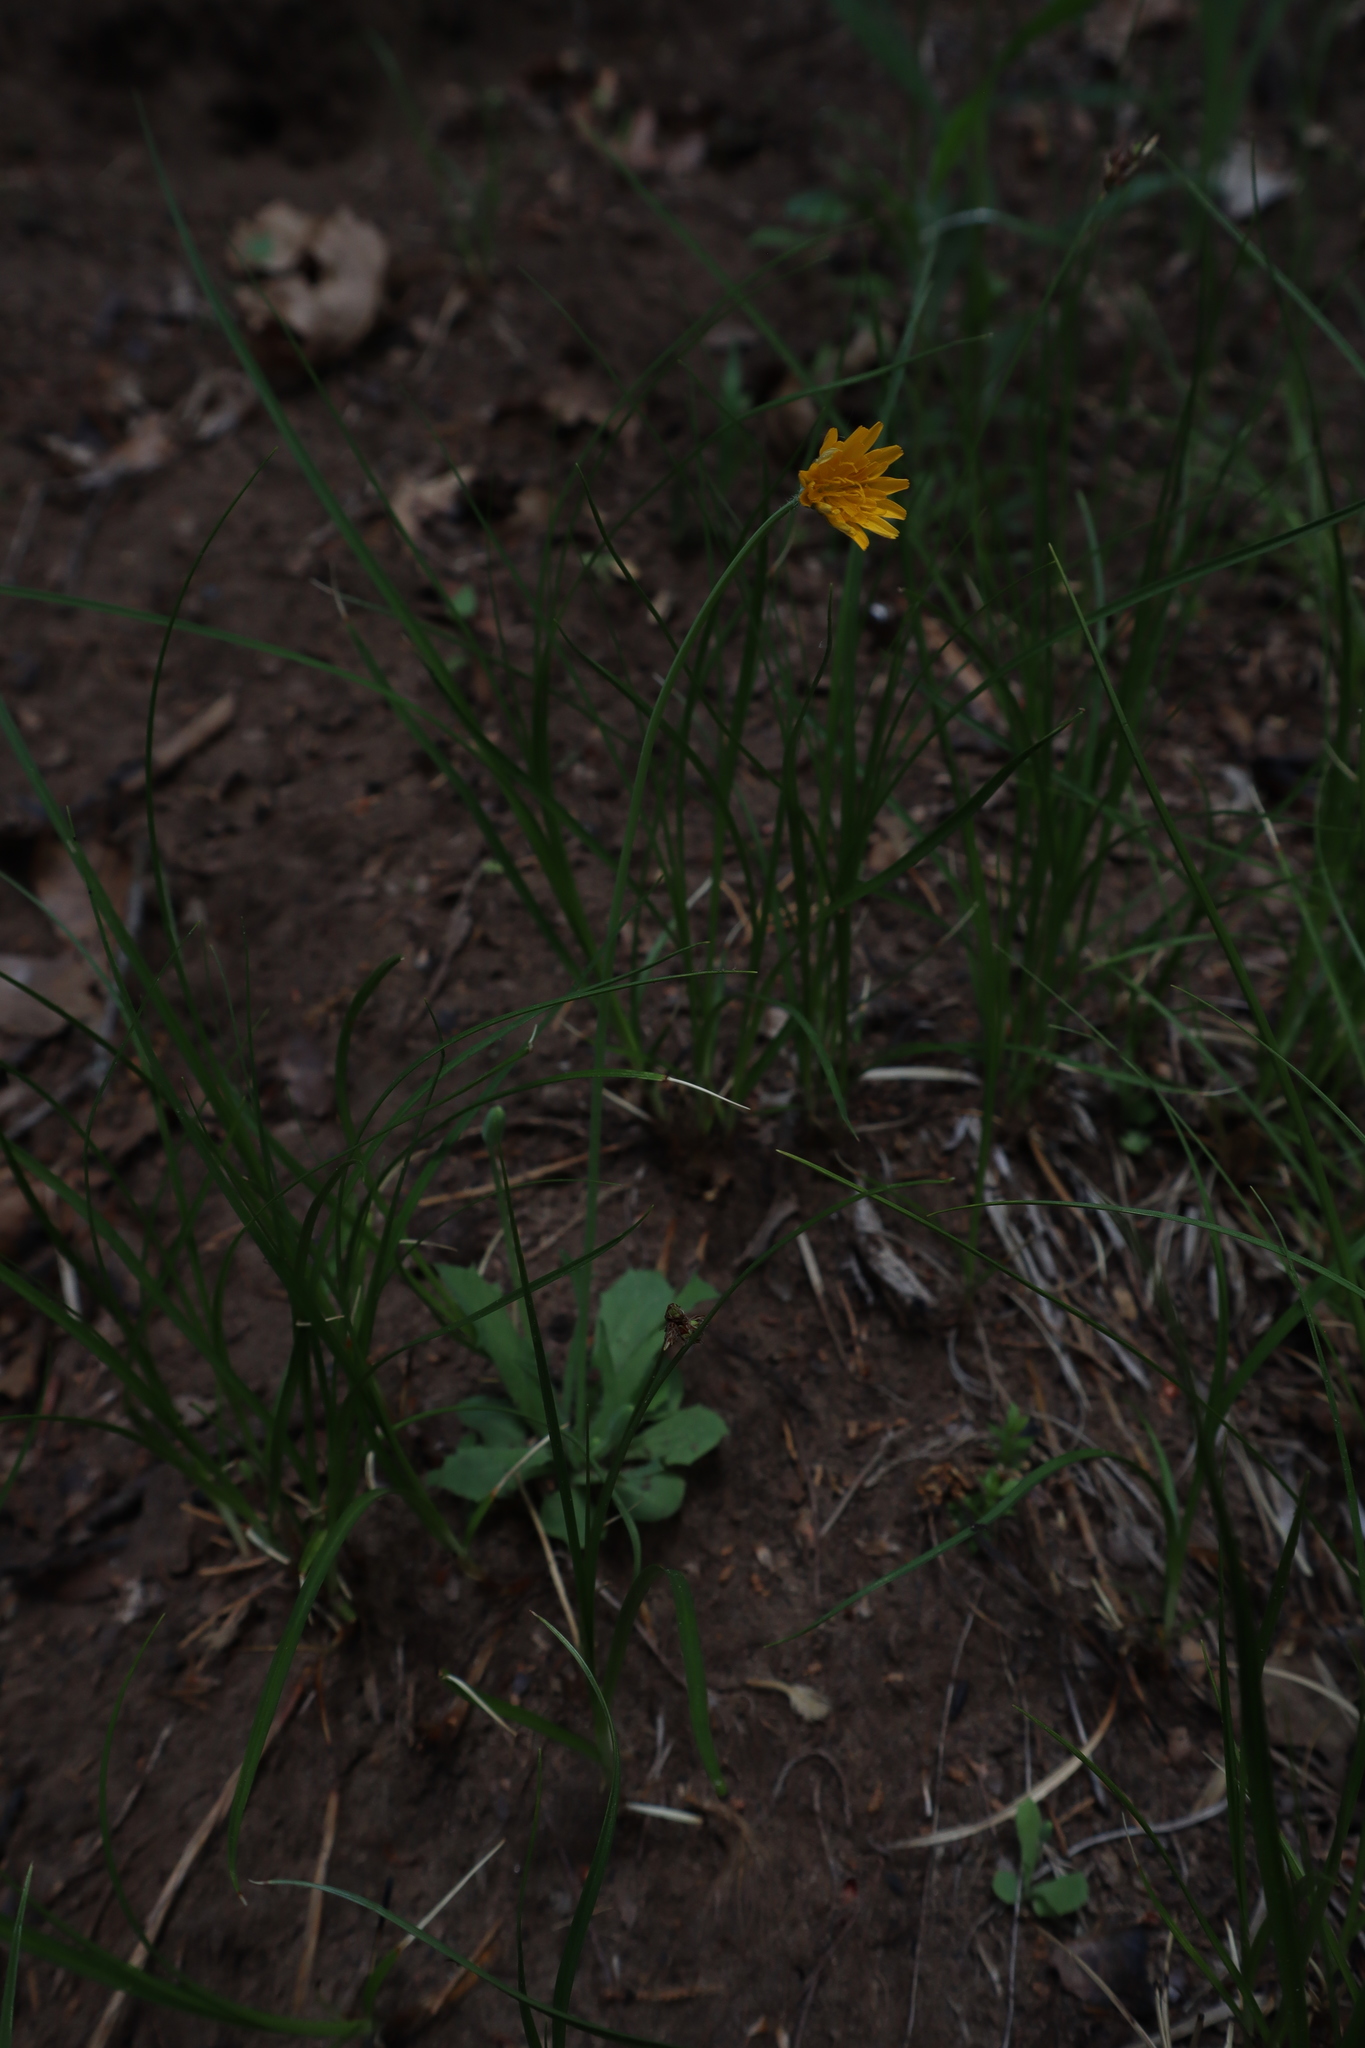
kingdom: Plantae
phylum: Tracheophyta
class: Magnoliopsida
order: Asterales
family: Asteraceae
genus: Krigia
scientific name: Krigia virginica
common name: Virginia dwarf-dandelion
